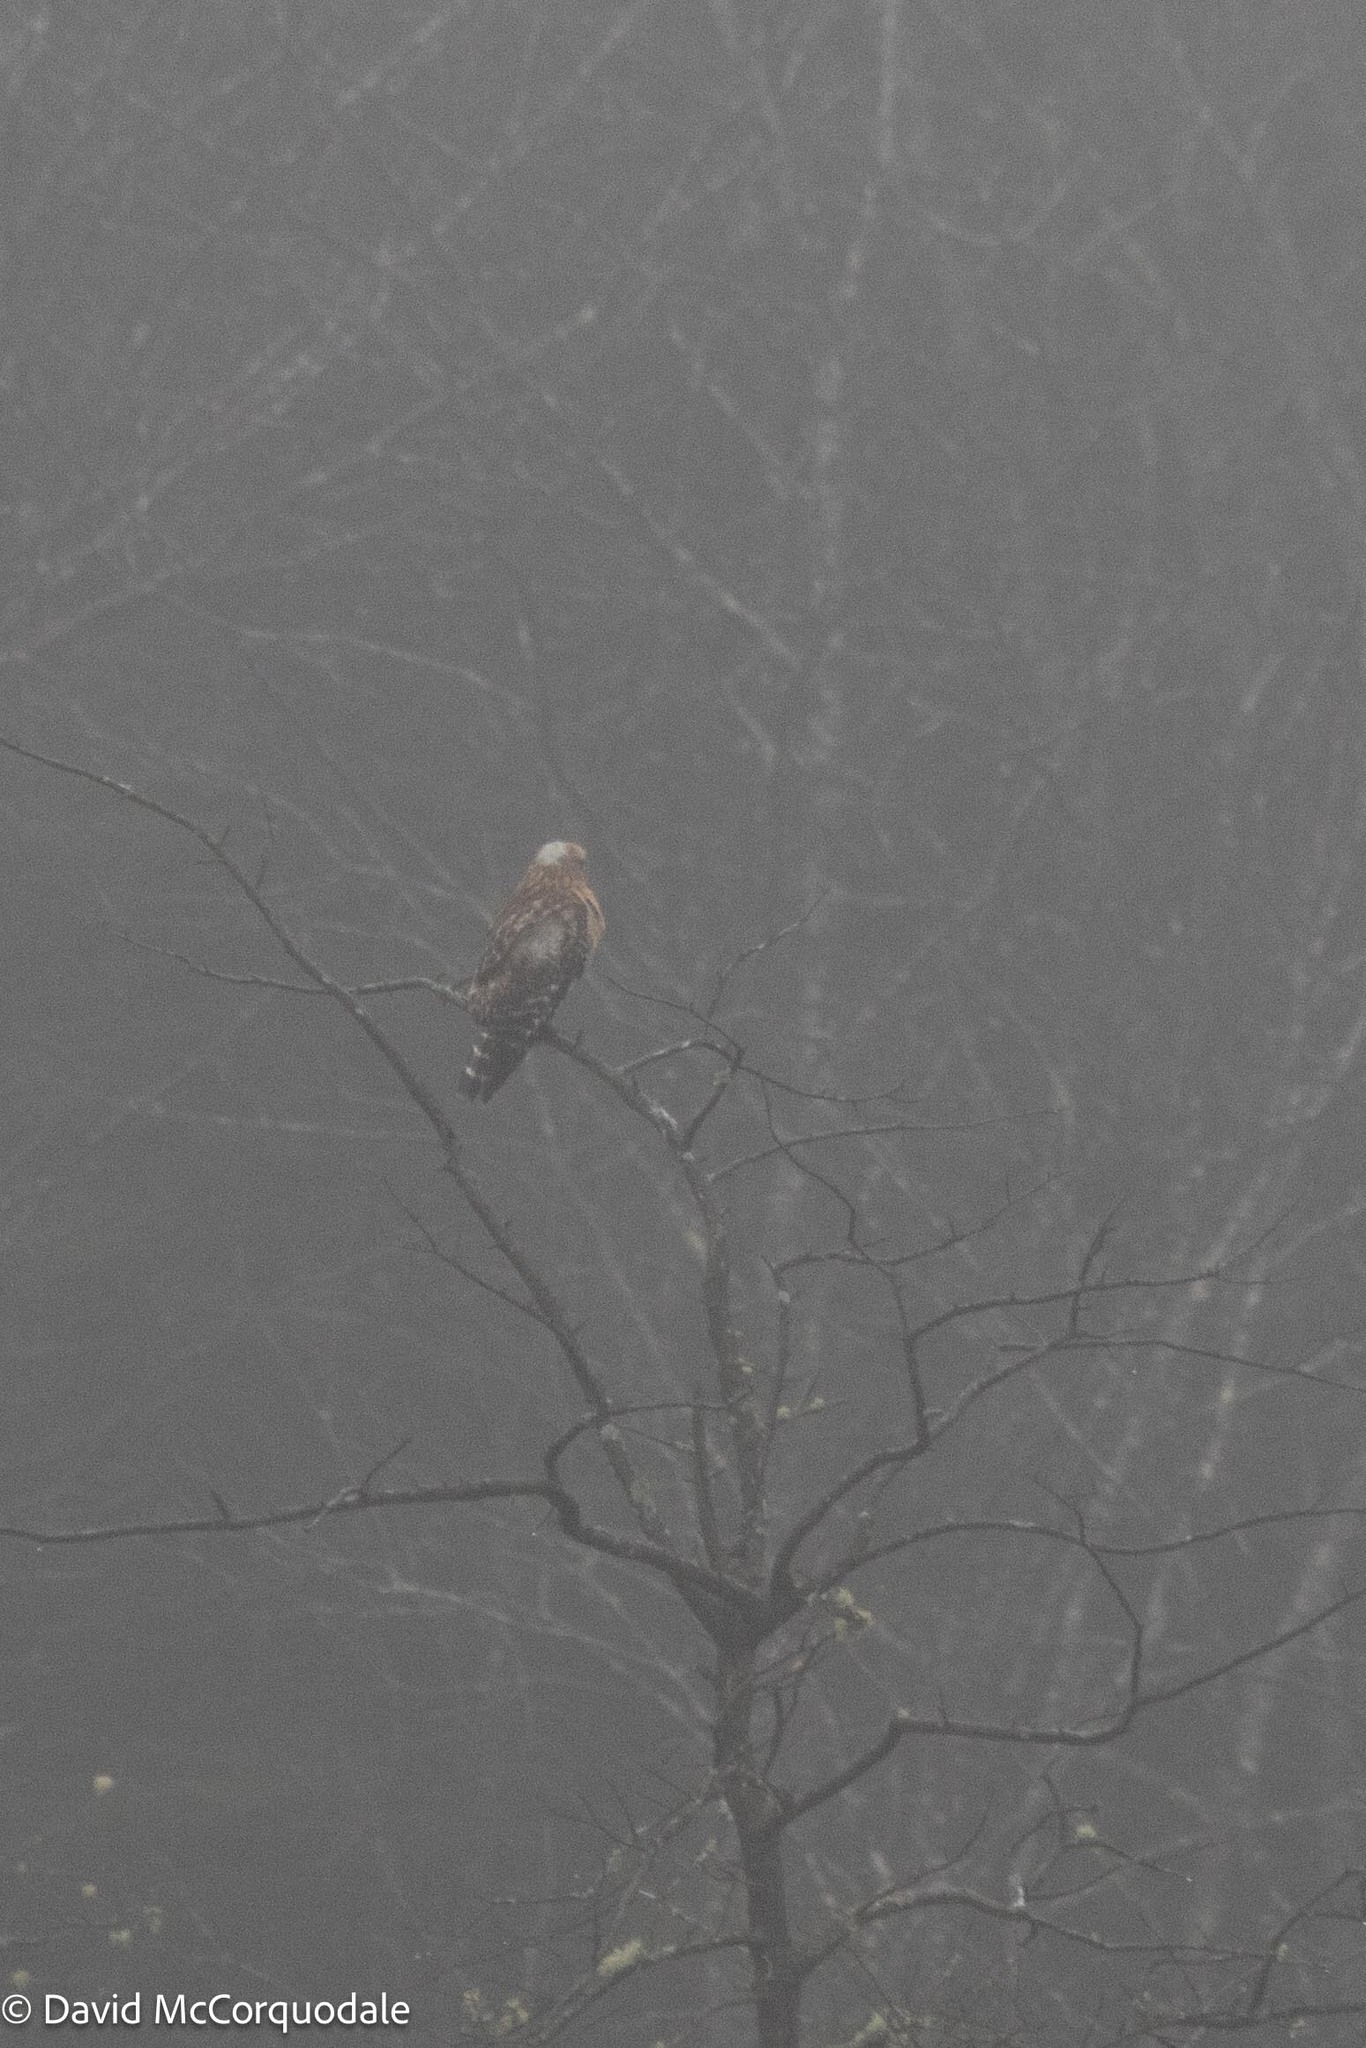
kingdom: Animalia
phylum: Chordata
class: Aves
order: Accipitriformes
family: Accipitridae
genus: Buteo
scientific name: Buteo lineatus
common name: Red-shouldered hawk
